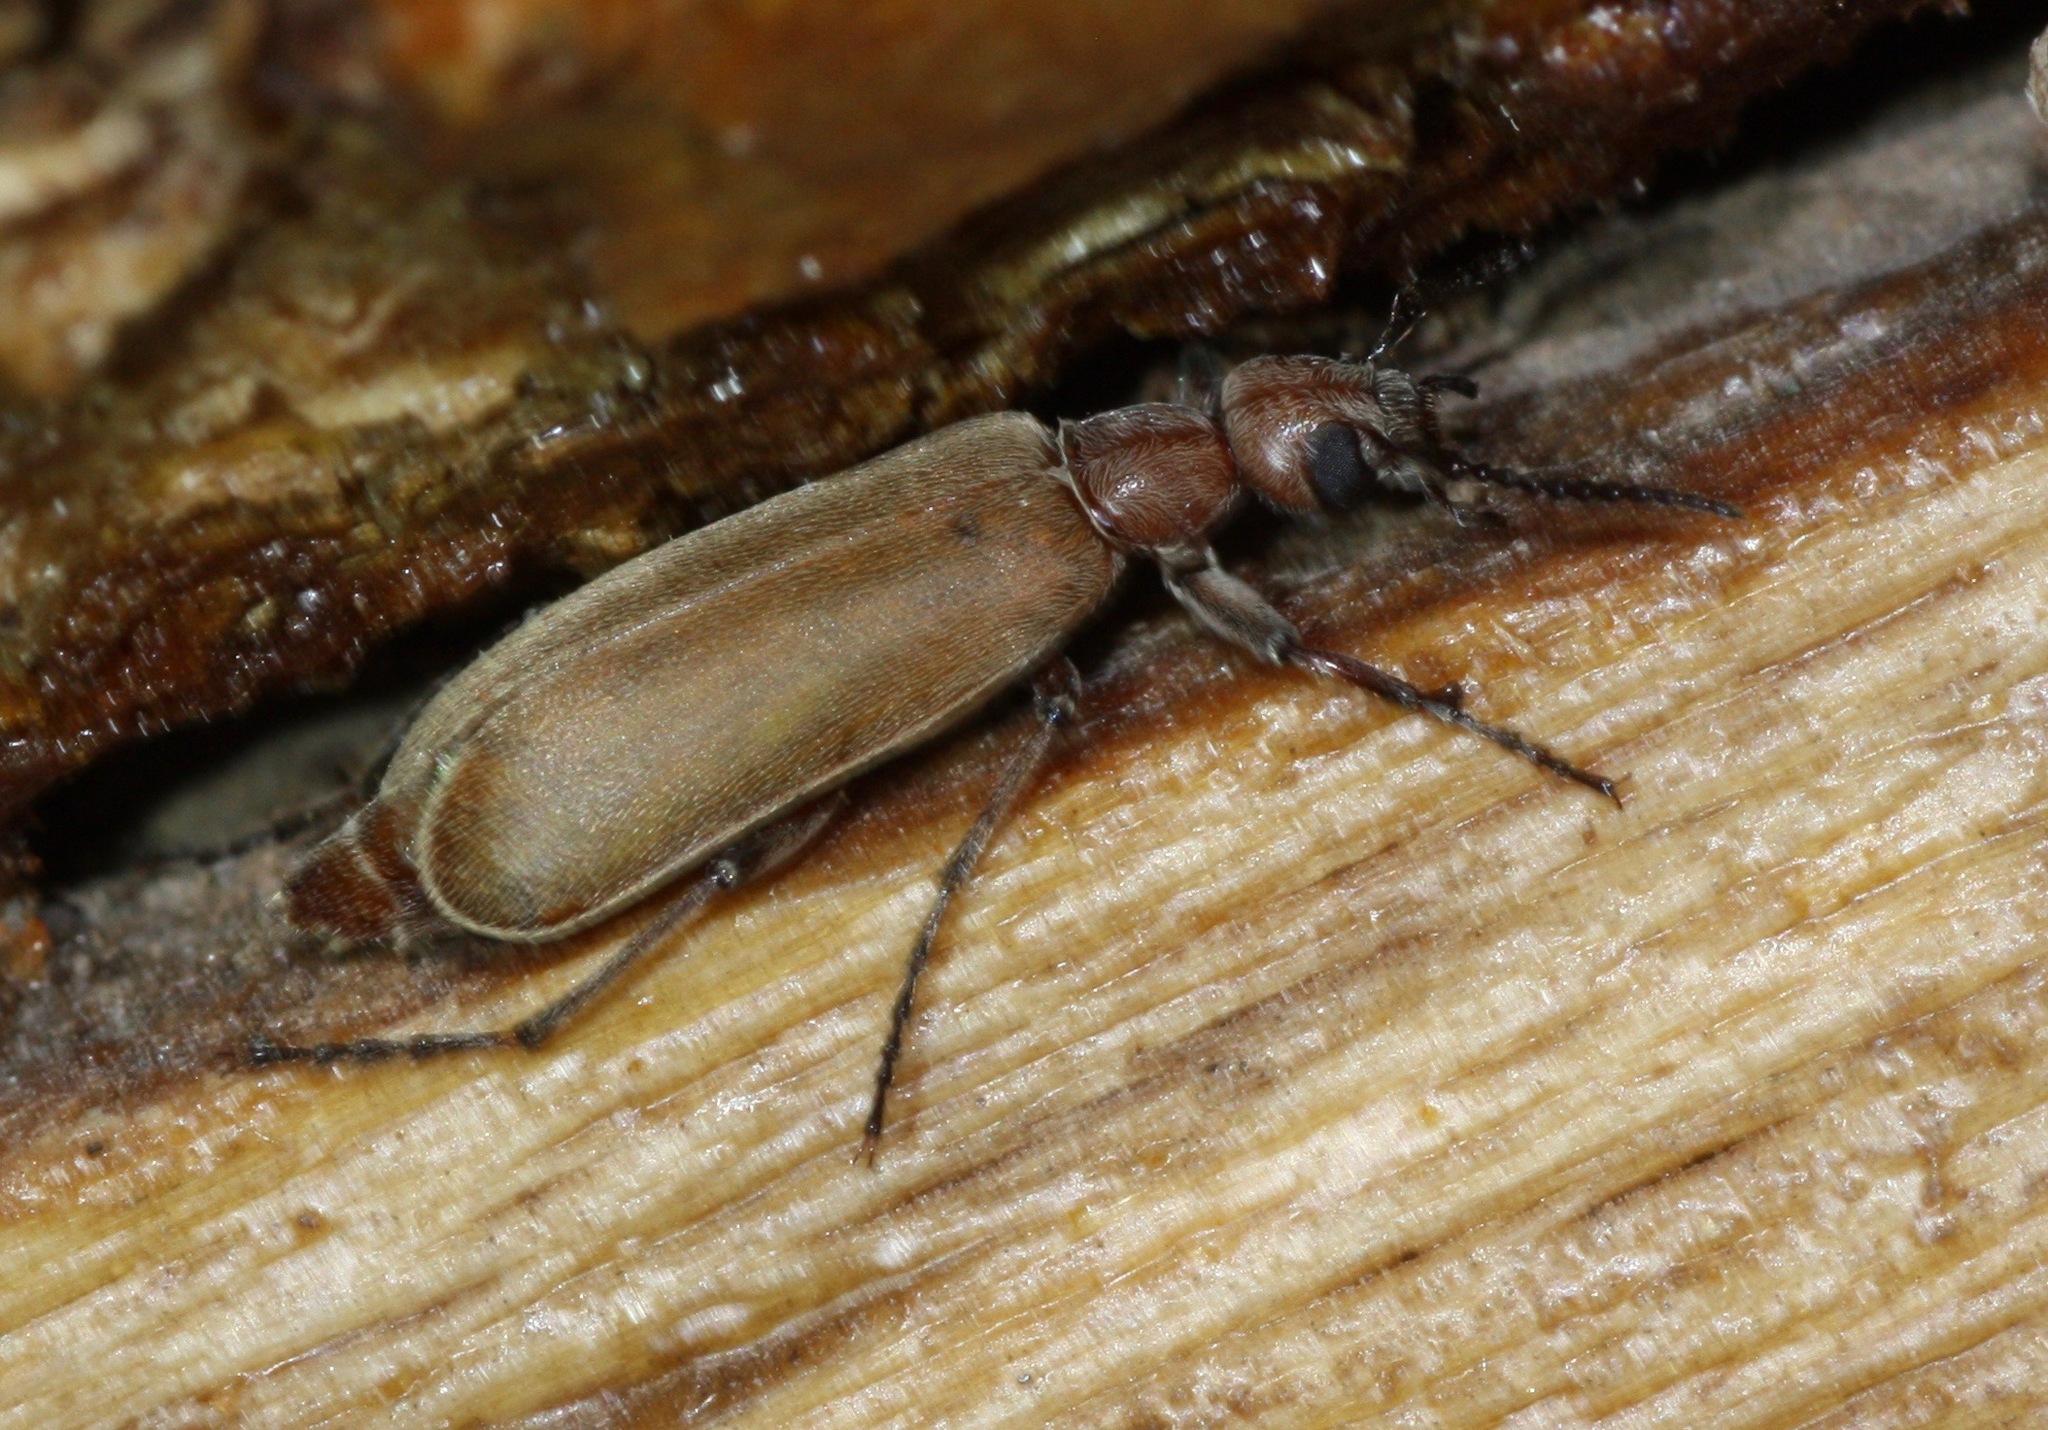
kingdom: Animalia
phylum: Arthropoda
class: Insecta
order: Coleoptera
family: Meloidae
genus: Epicauta
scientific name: Epicauta ochrea
